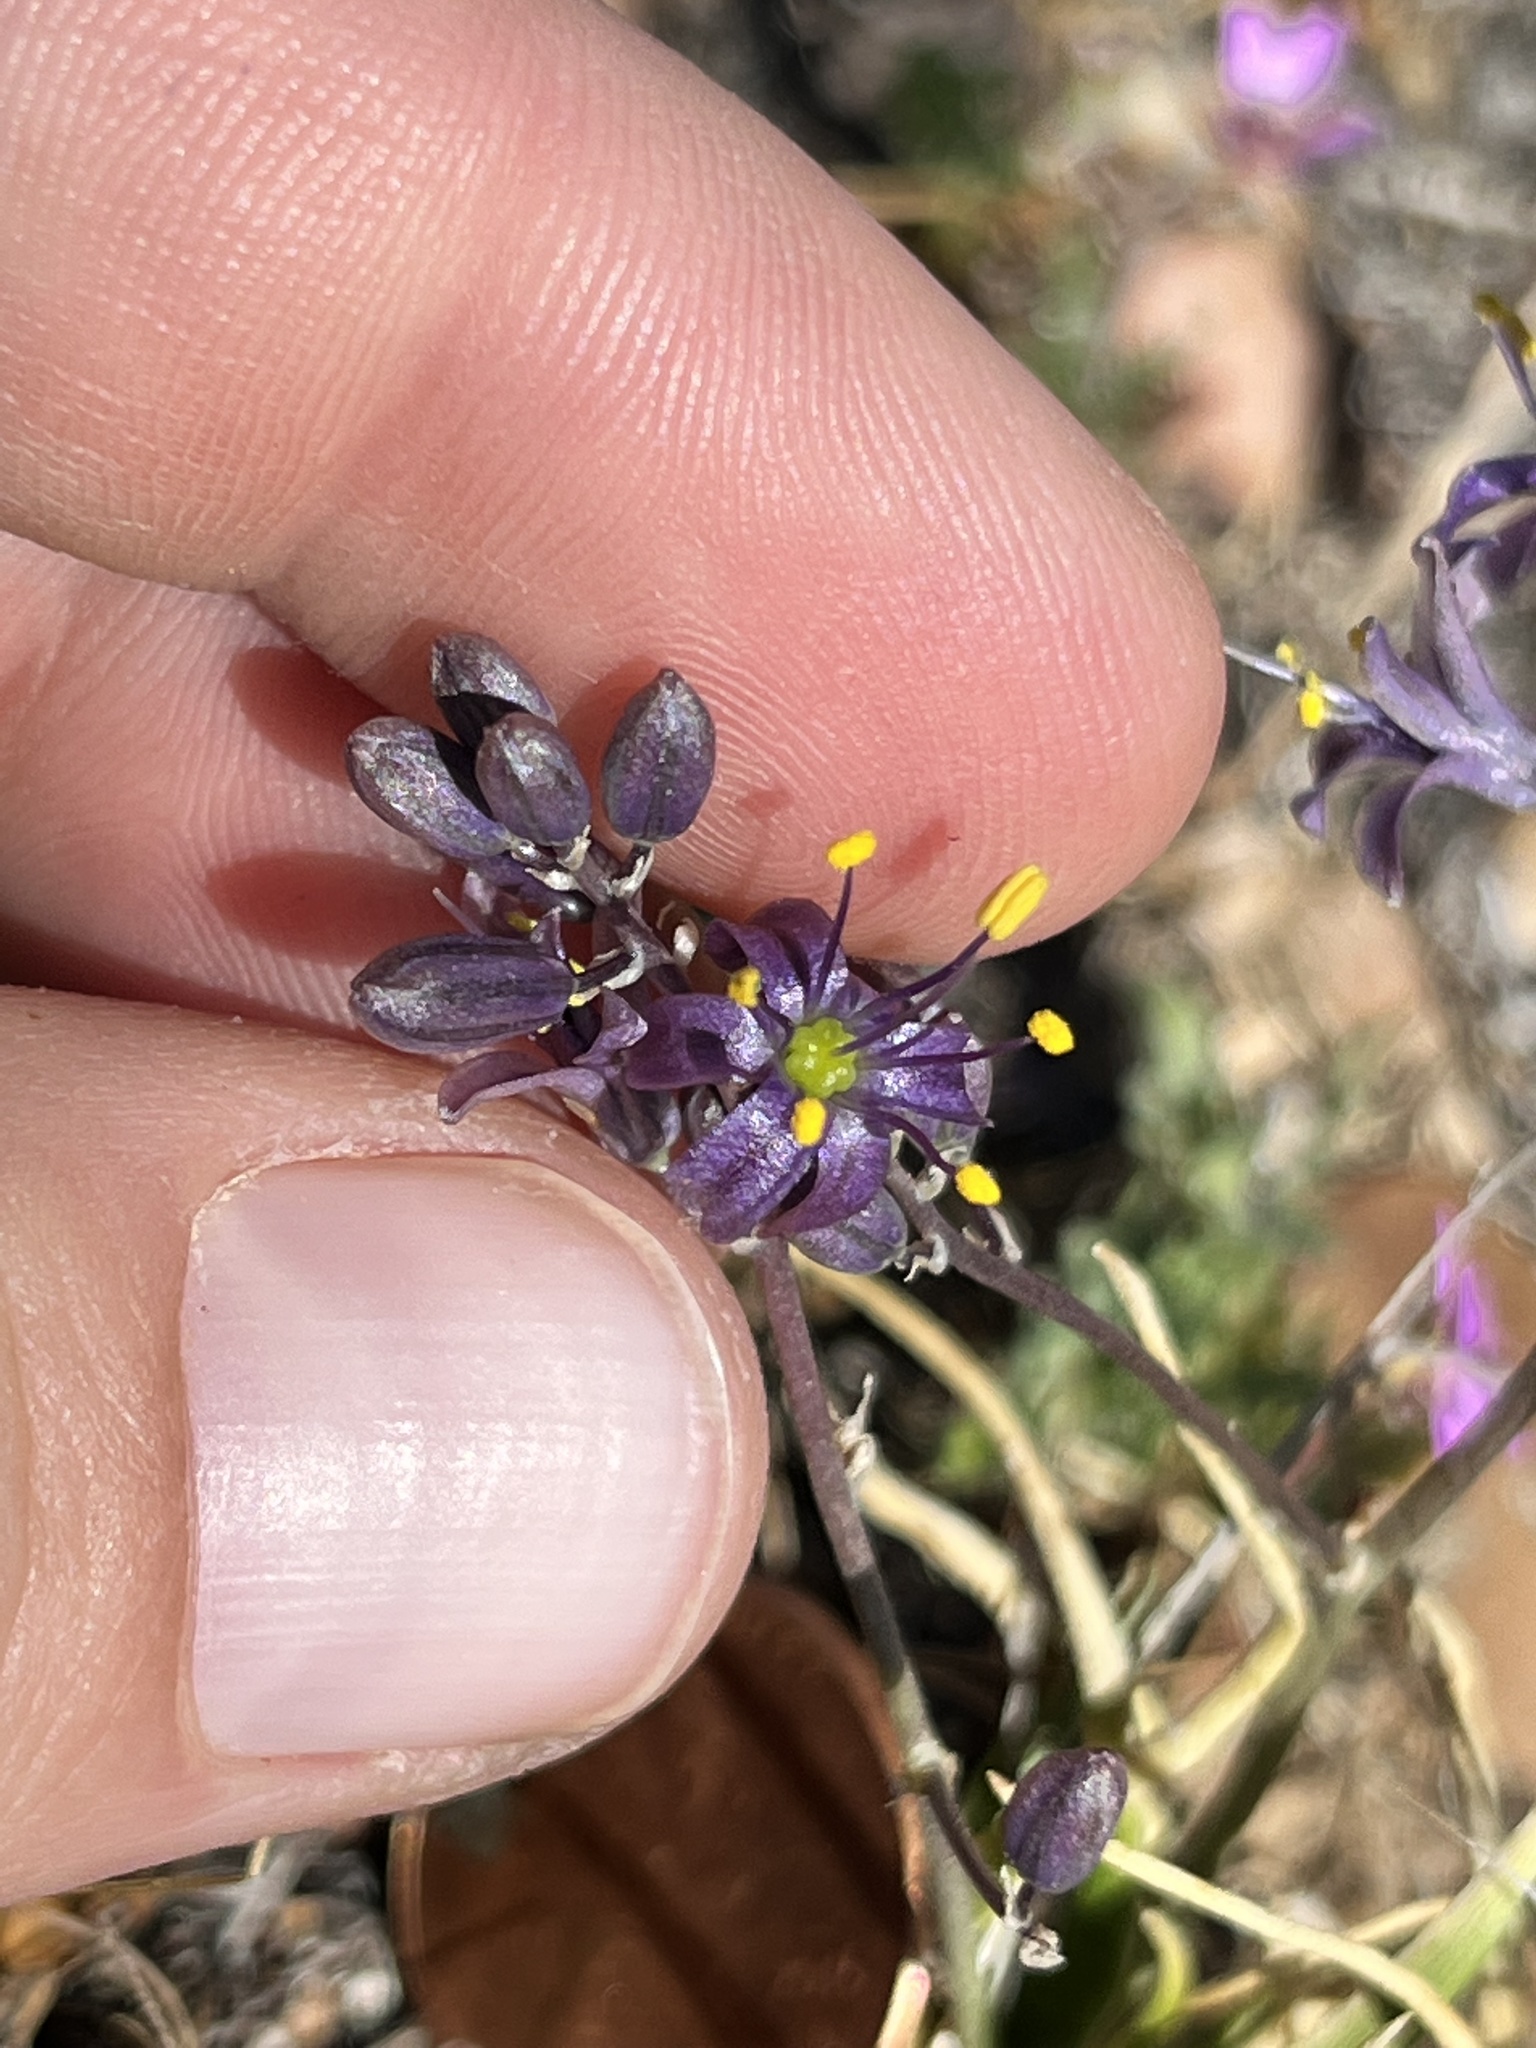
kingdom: Plantae
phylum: Tracheophyta
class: Liliopsida
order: Asparagales
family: Asparagaceae
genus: Hooveria
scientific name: Hooveria purpurea
